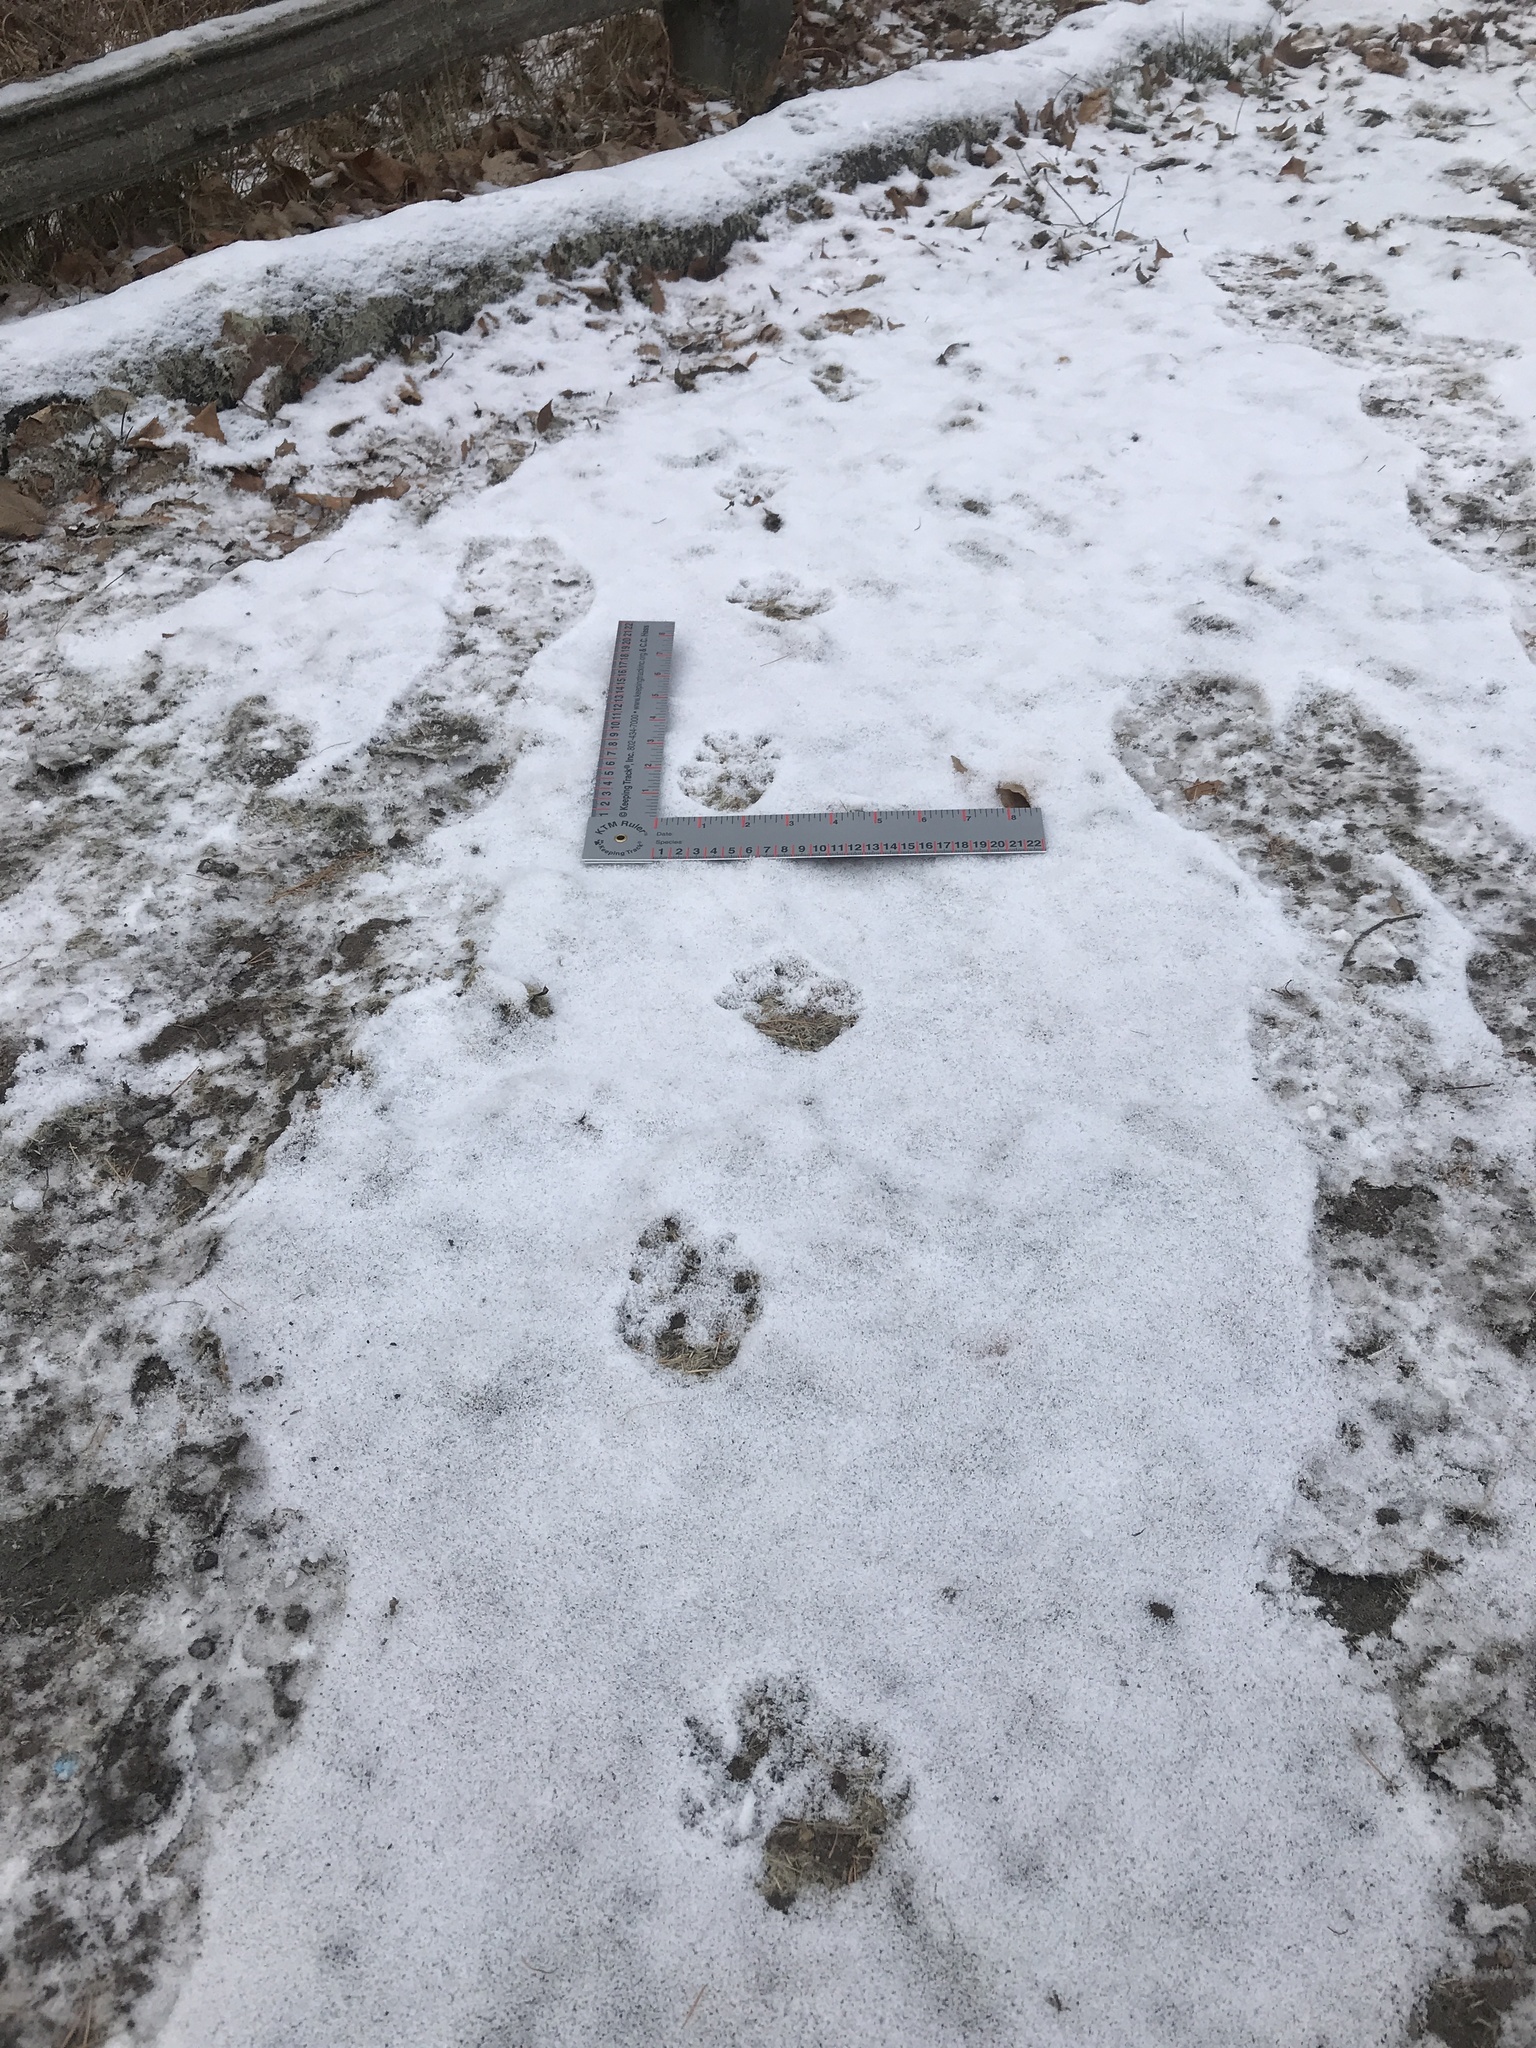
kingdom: Animalia
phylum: Chordata
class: Mammalia
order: Didelphimorphia
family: Didelphidae
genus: Didelphis
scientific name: Didelphis virginiana
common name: Virginia opossum
